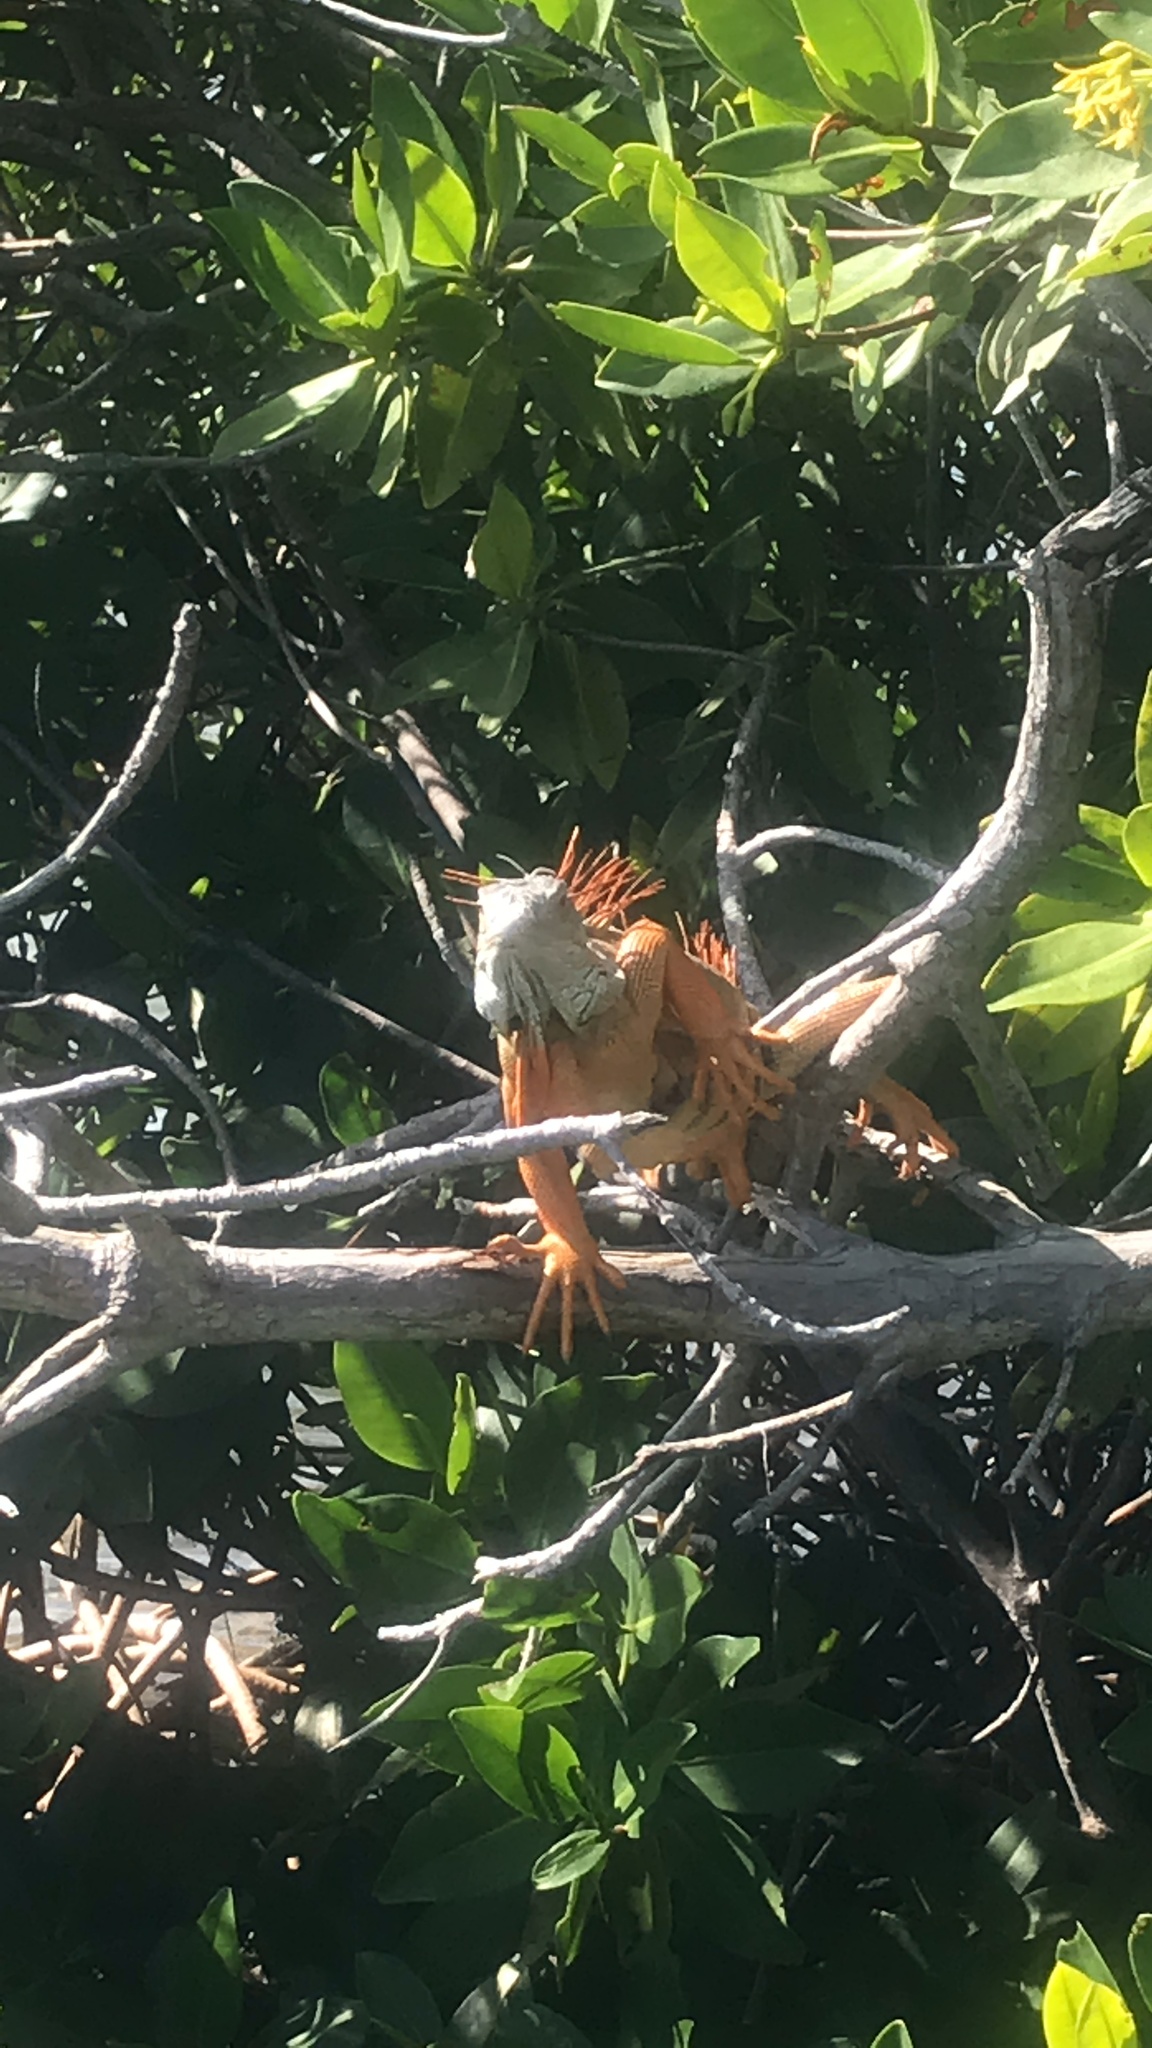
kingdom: Animalia
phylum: Chordata
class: Squamata
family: Iguanidae
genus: Iguana
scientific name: Iguana iguana
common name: Green iguana
